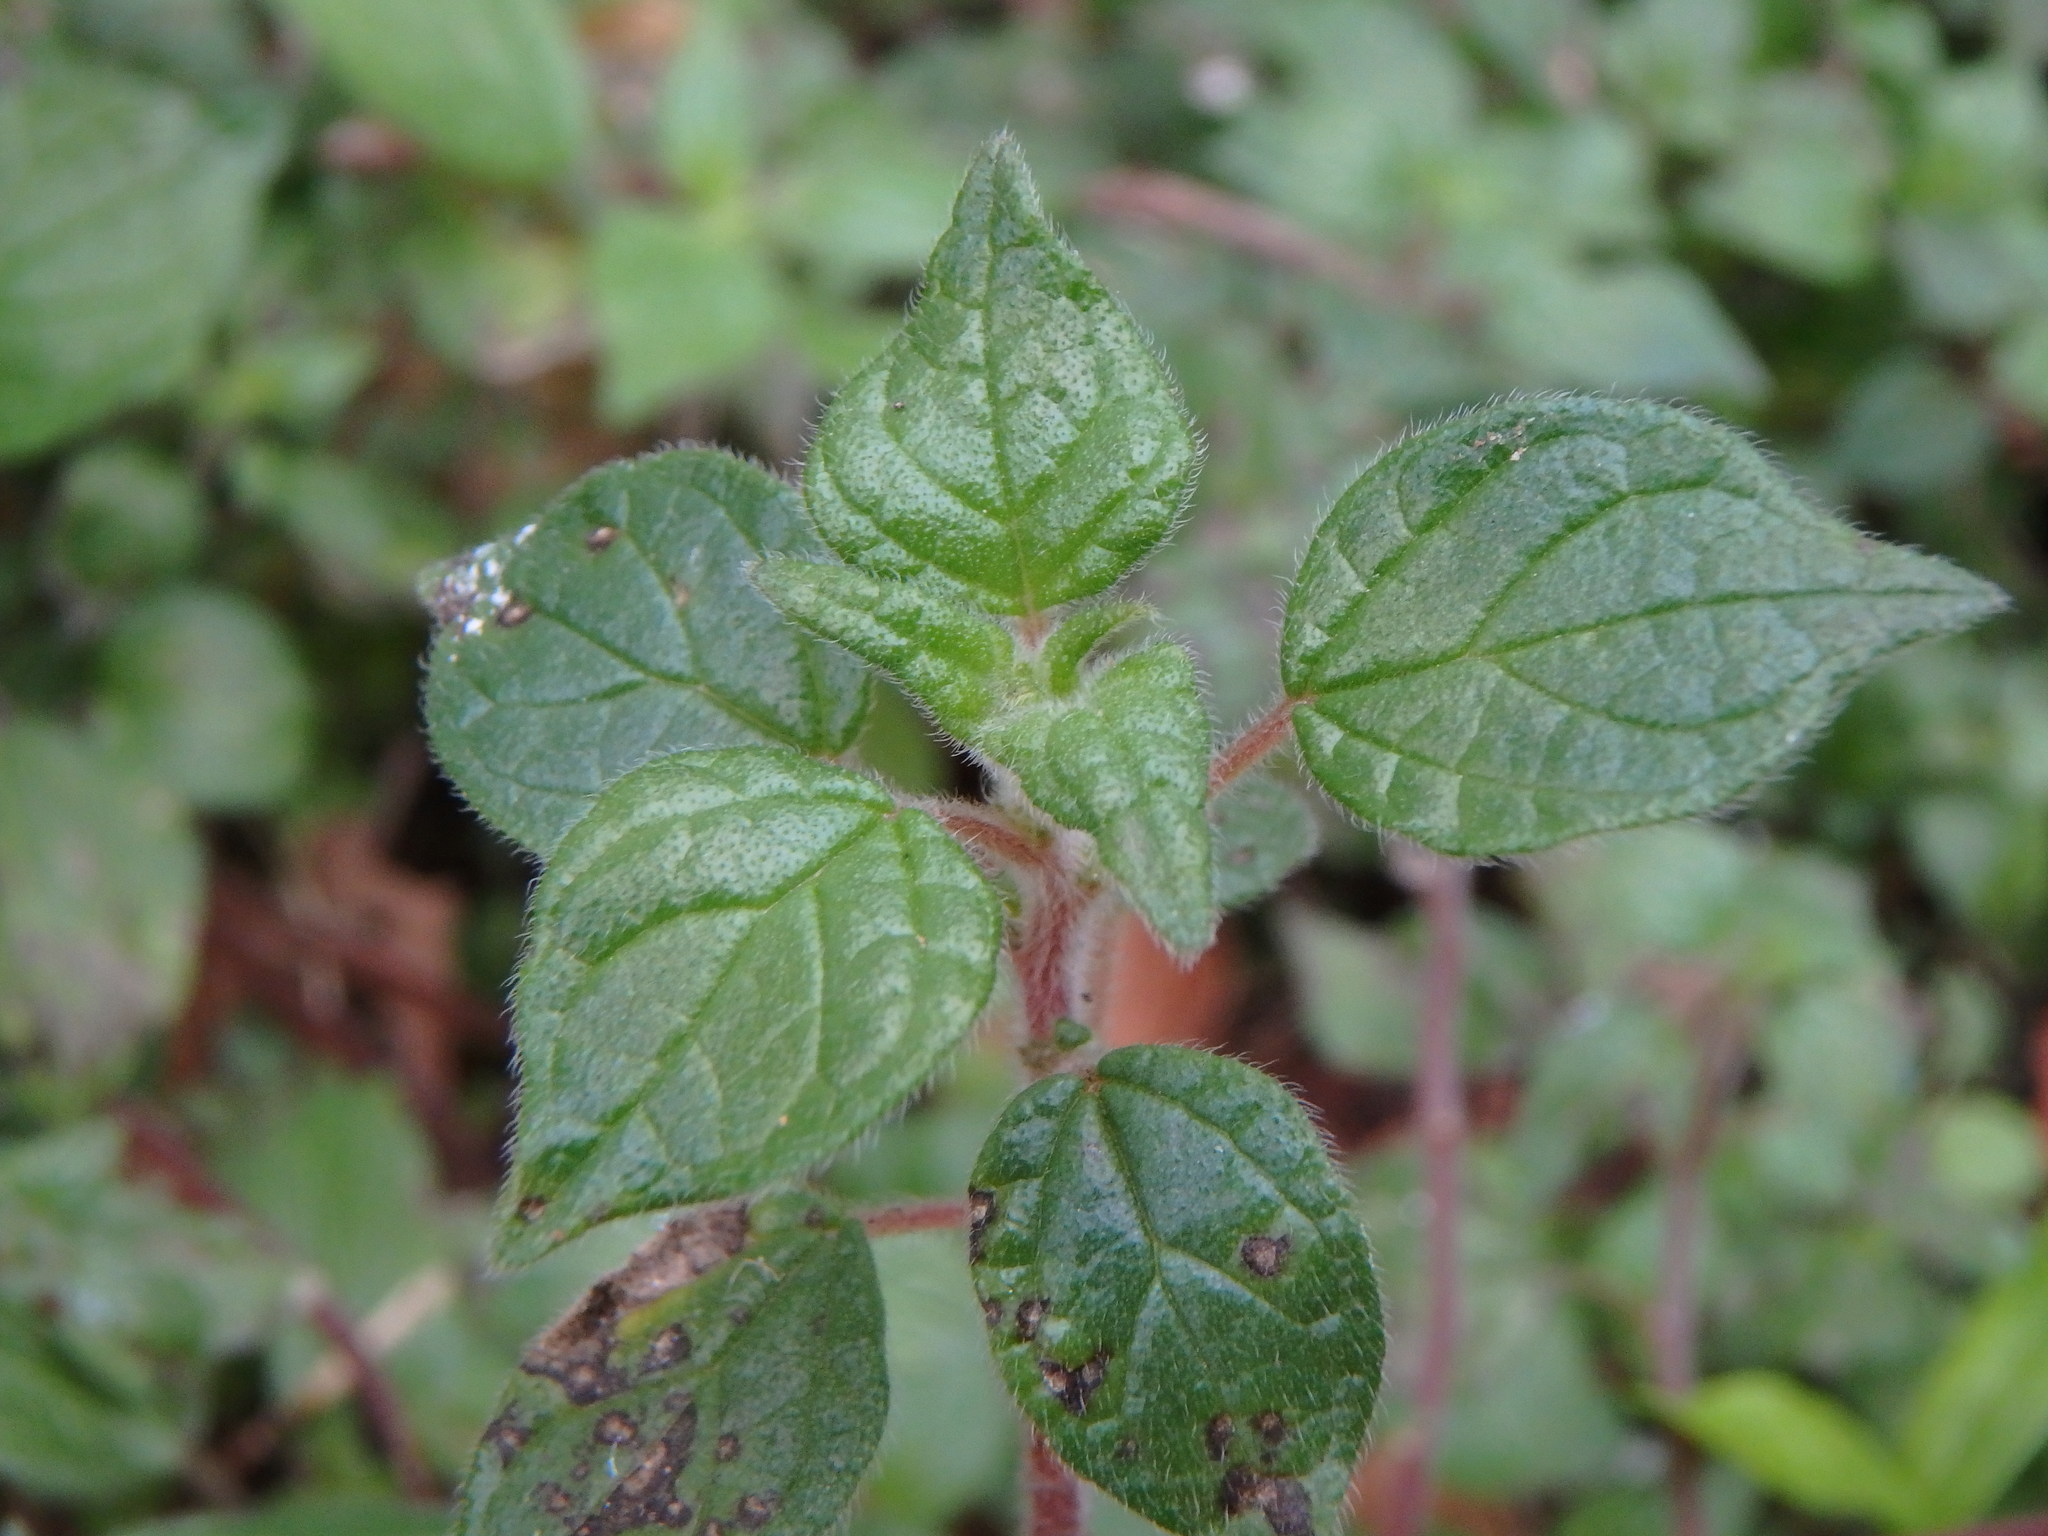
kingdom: Plantae
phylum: Tracheophyta
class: Magnoliopsida
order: Rosales
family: Urticaceae
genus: Parietaria
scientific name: Parietaria judaica
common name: Pellitory-of-the-wall
